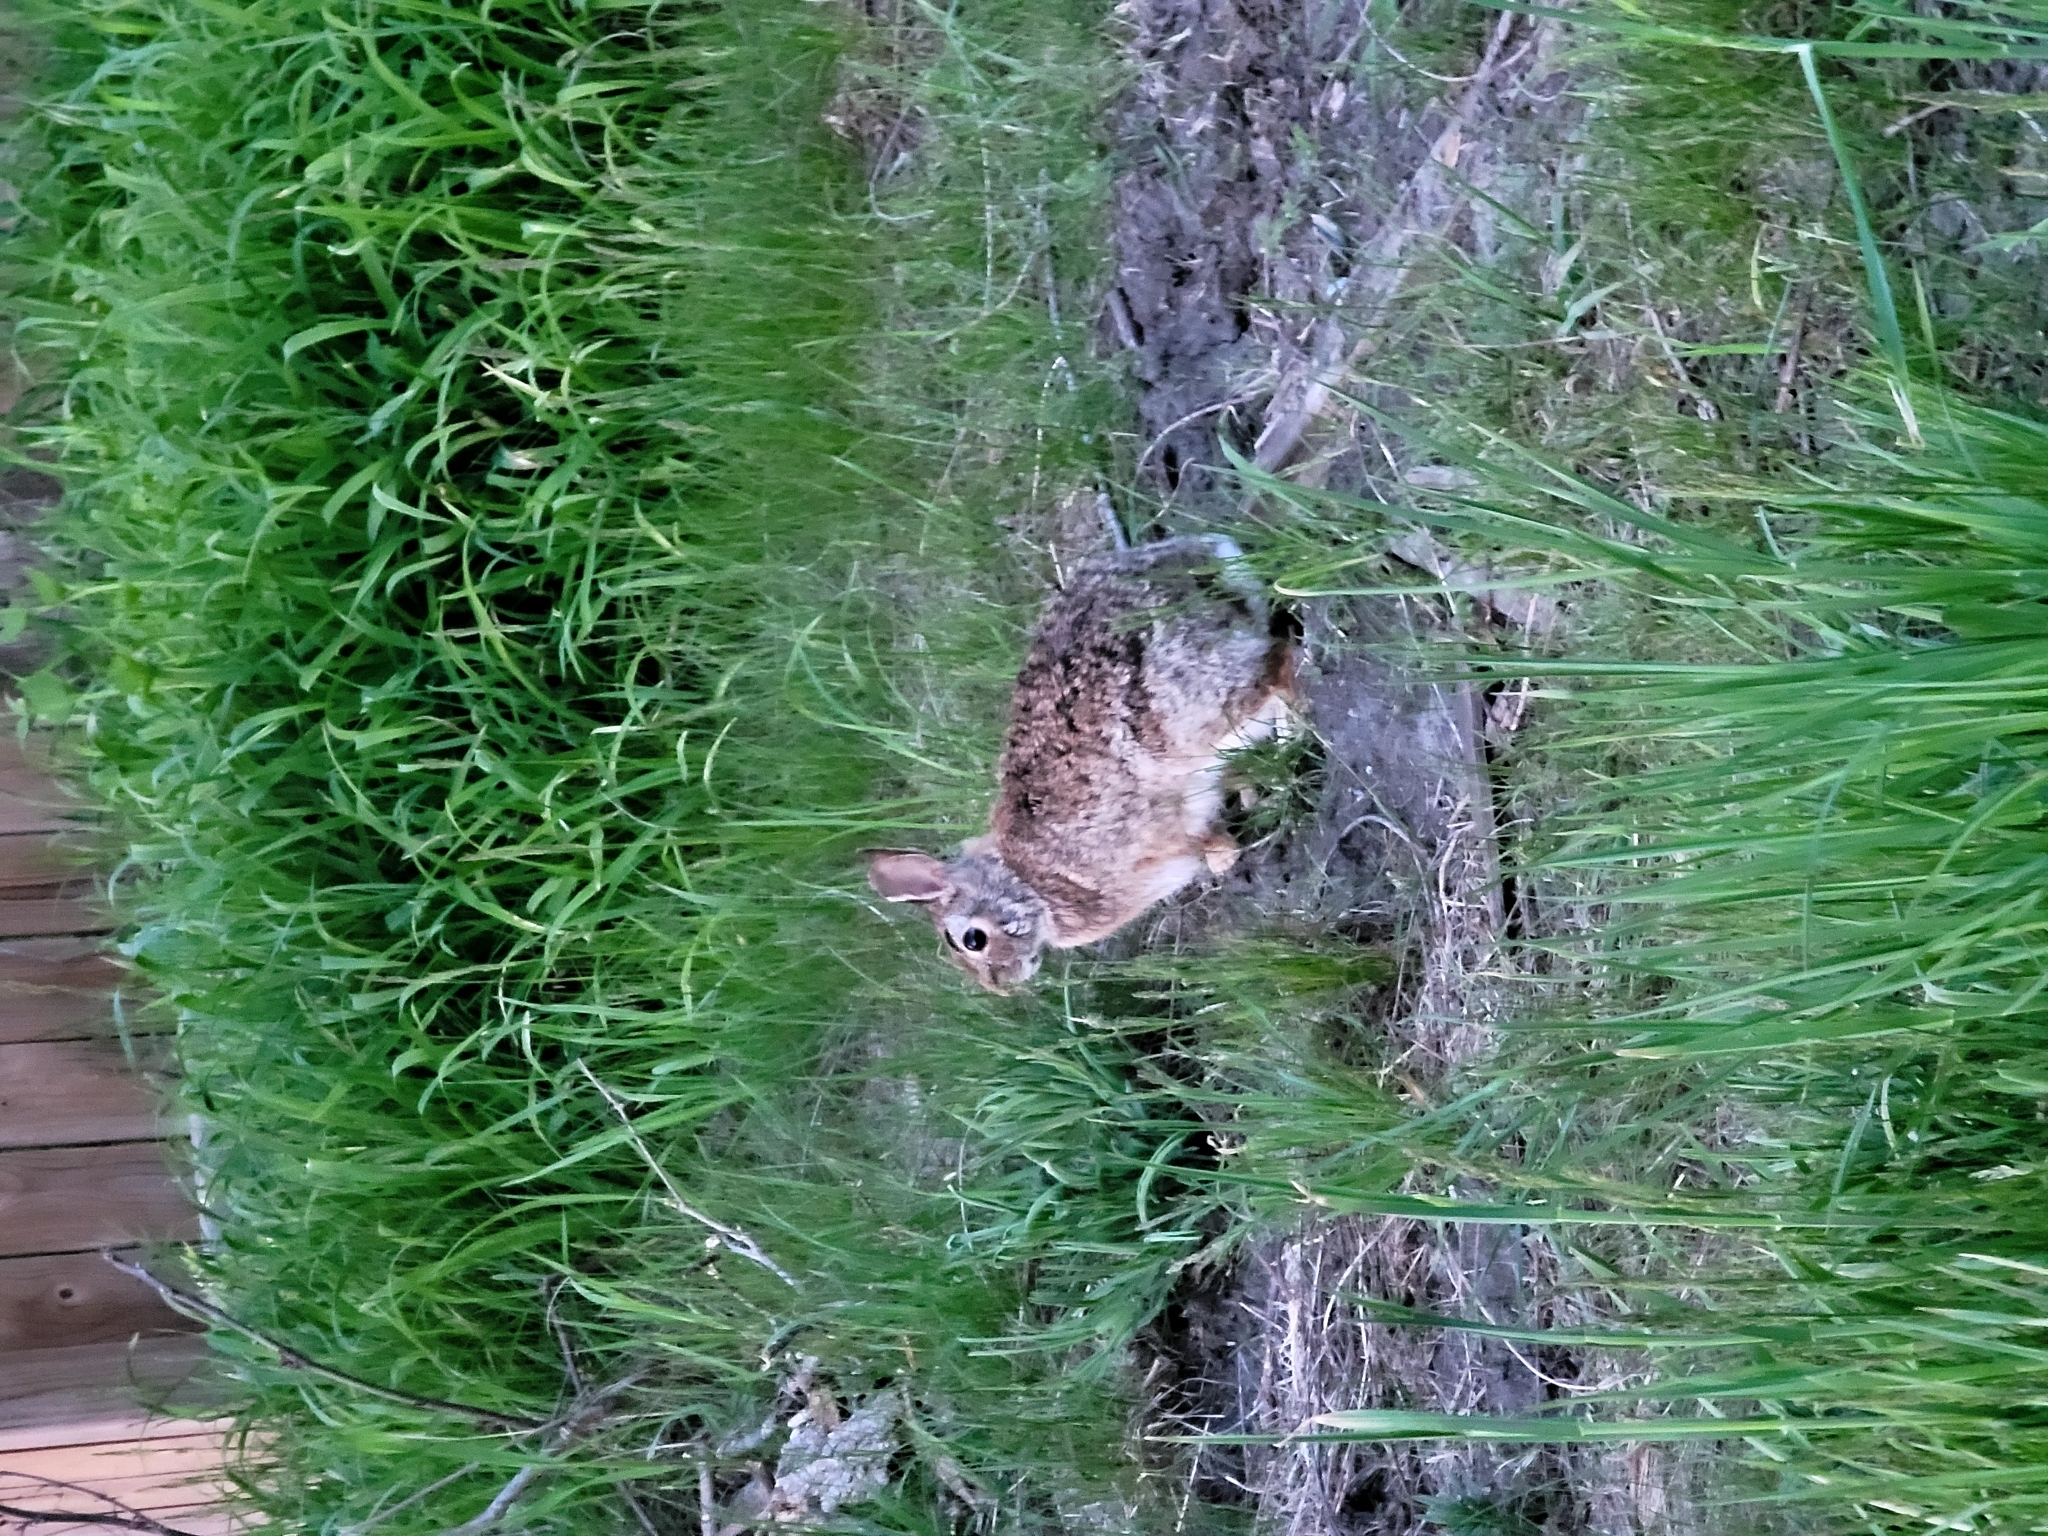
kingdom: Animalia
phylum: Chordata
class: Mammalia
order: Lagomorpha
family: Leporidae
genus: Sylvilagus
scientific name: Sylvilagus floridanus
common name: Eastern cottontail
